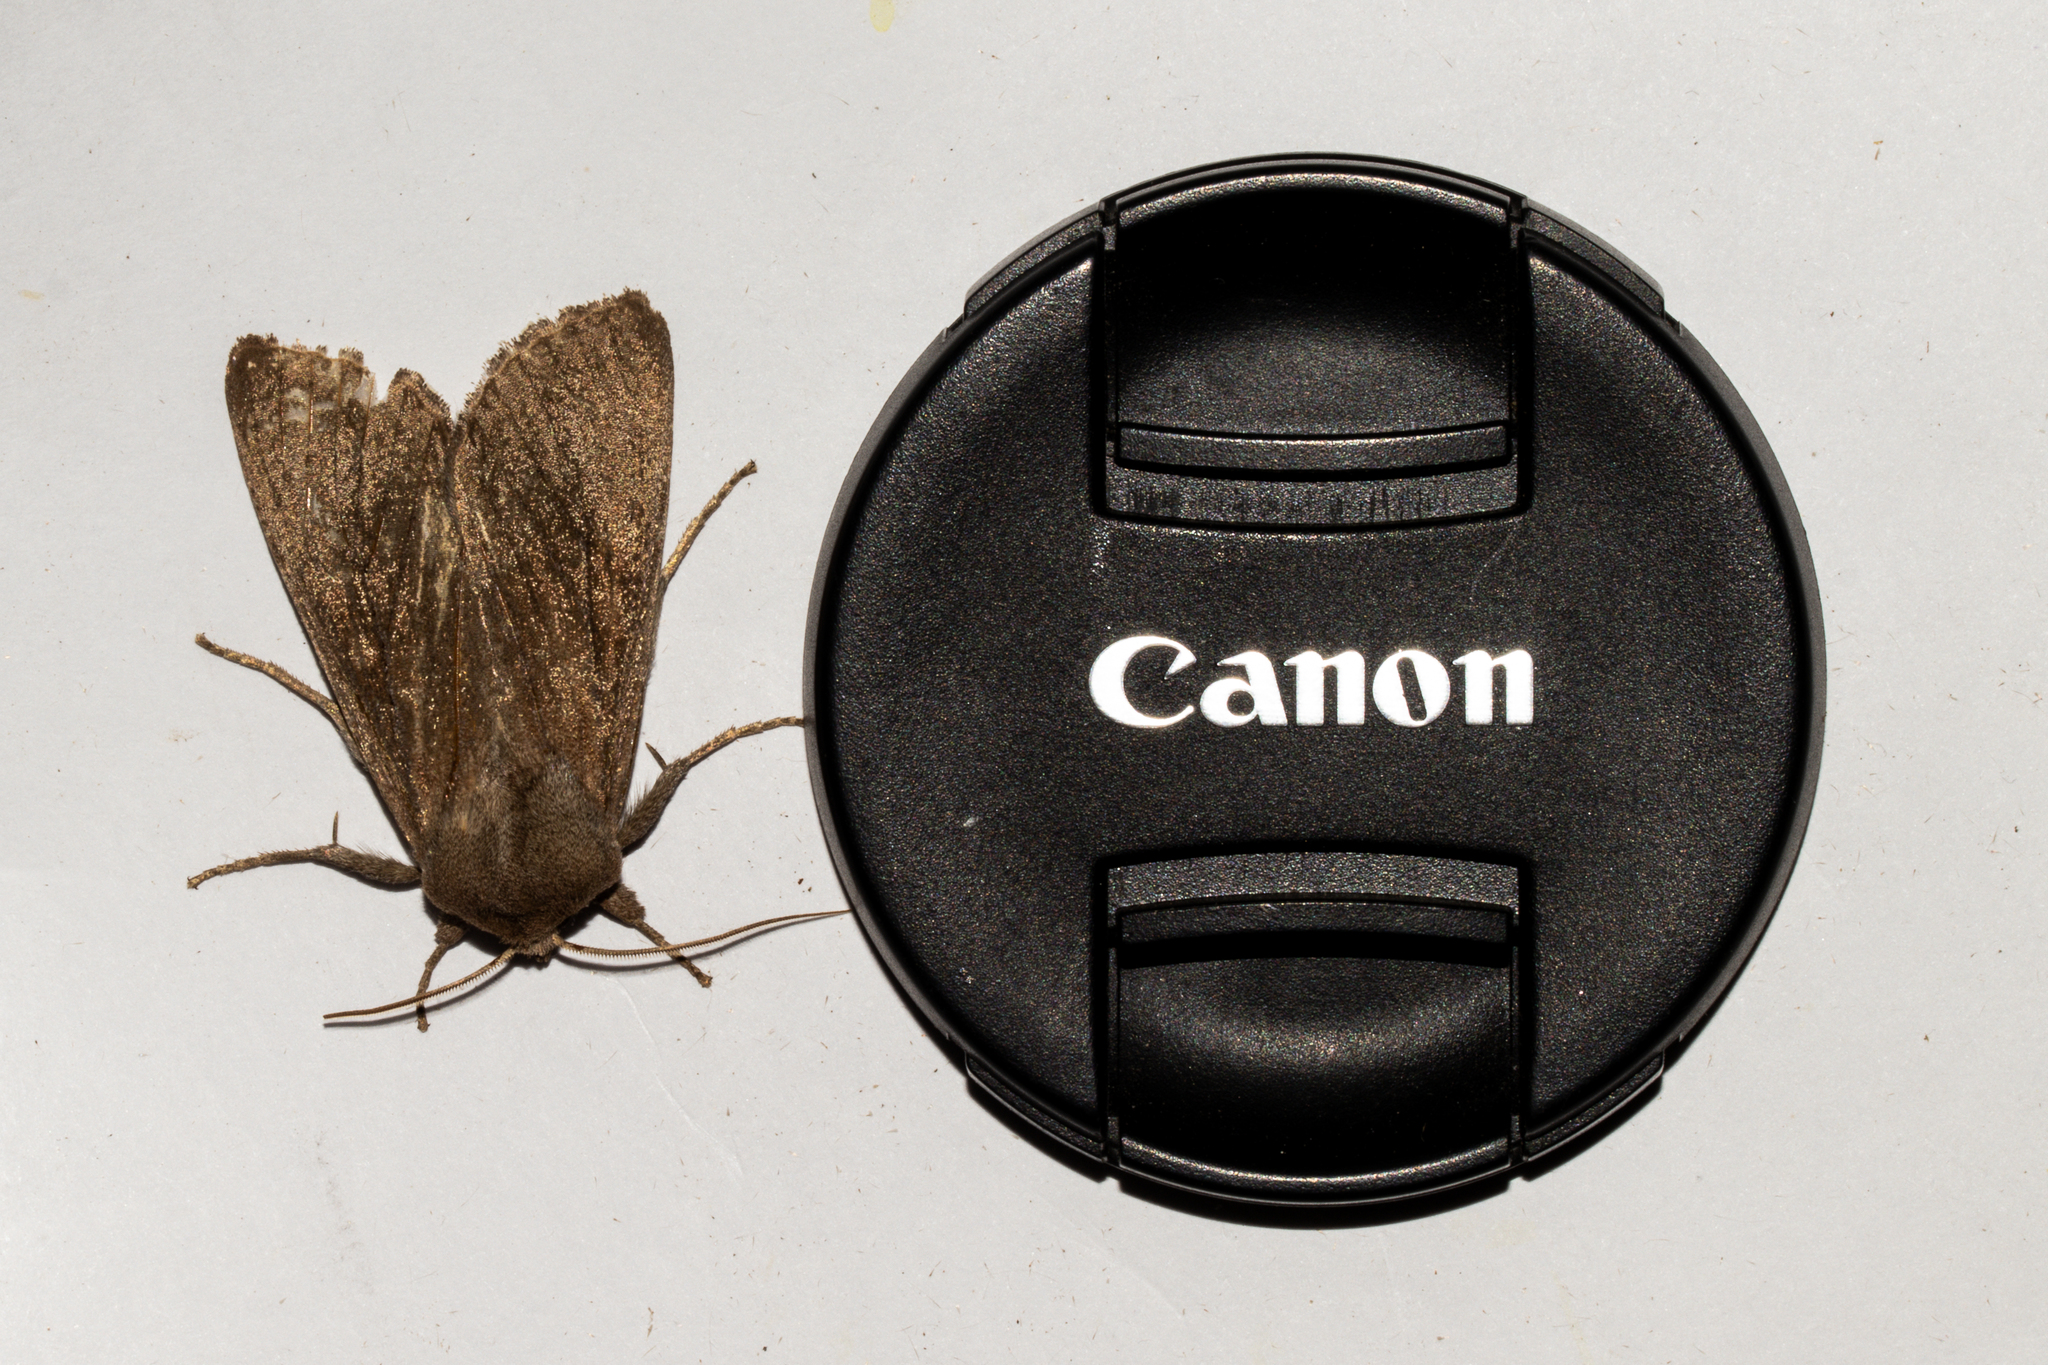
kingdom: Animalia
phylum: Arthropoda
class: Insecta
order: Lepidoptera
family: Noctuidae
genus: Ichneutica
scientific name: Ichneutica nullifera
